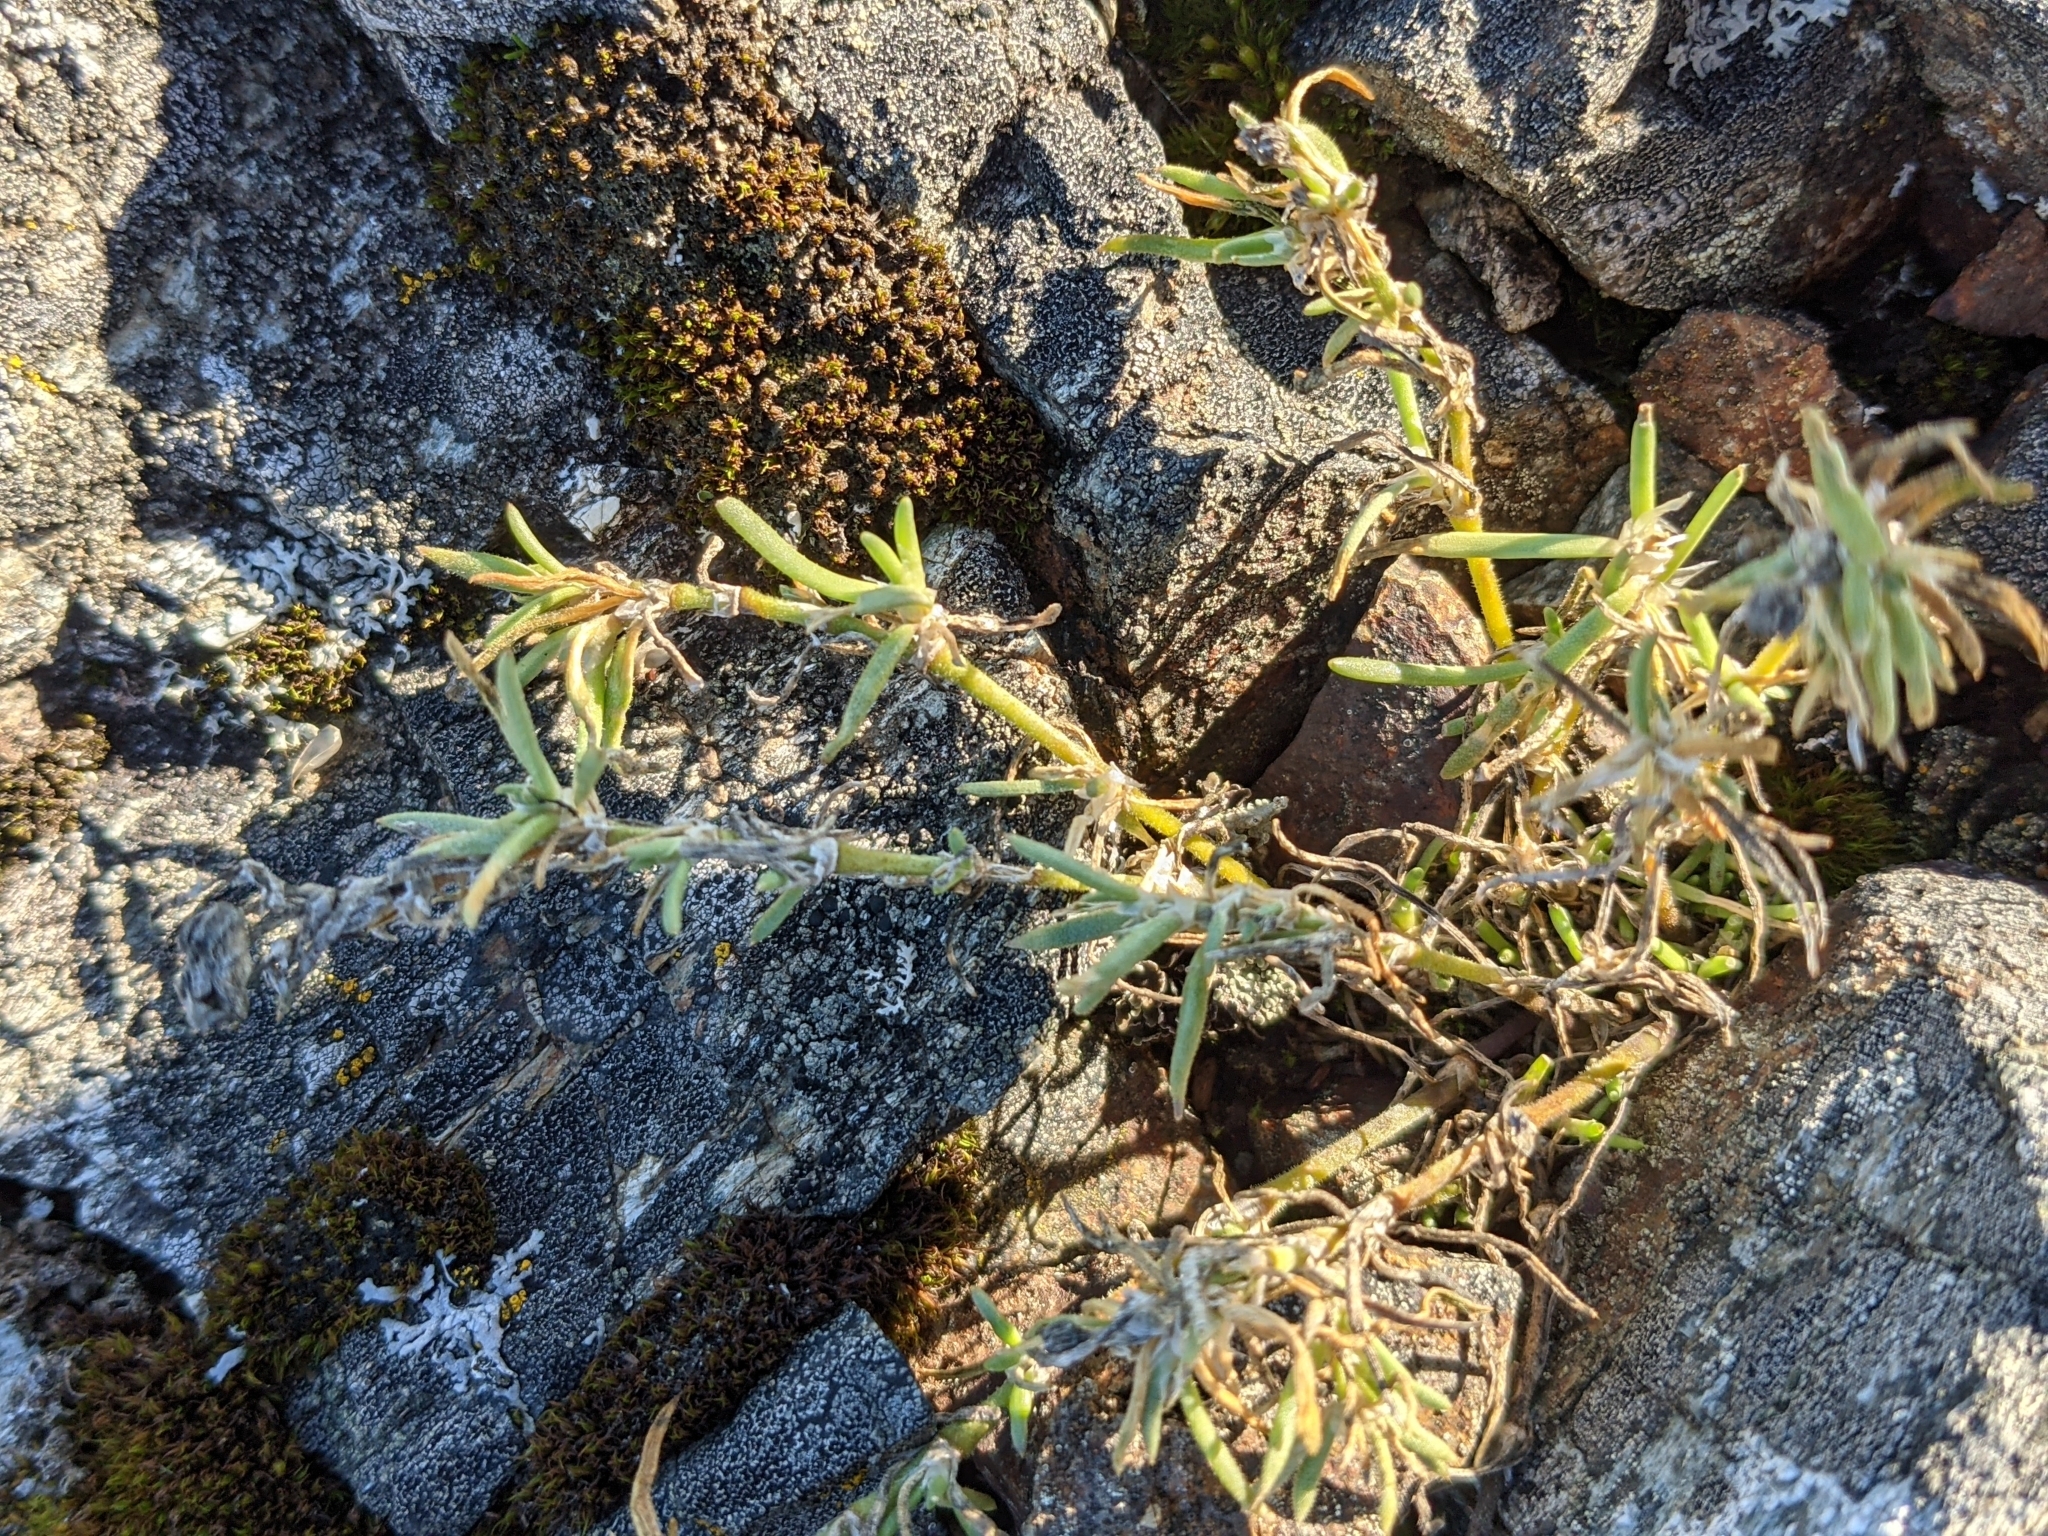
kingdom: Plantae
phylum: Tracheophyta
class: Magnoliopsida
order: Caryophyllales
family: Caryophyllaceae
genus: Spergularia
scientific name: Spergularia macrotheca
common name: Beach sand-spurrey
